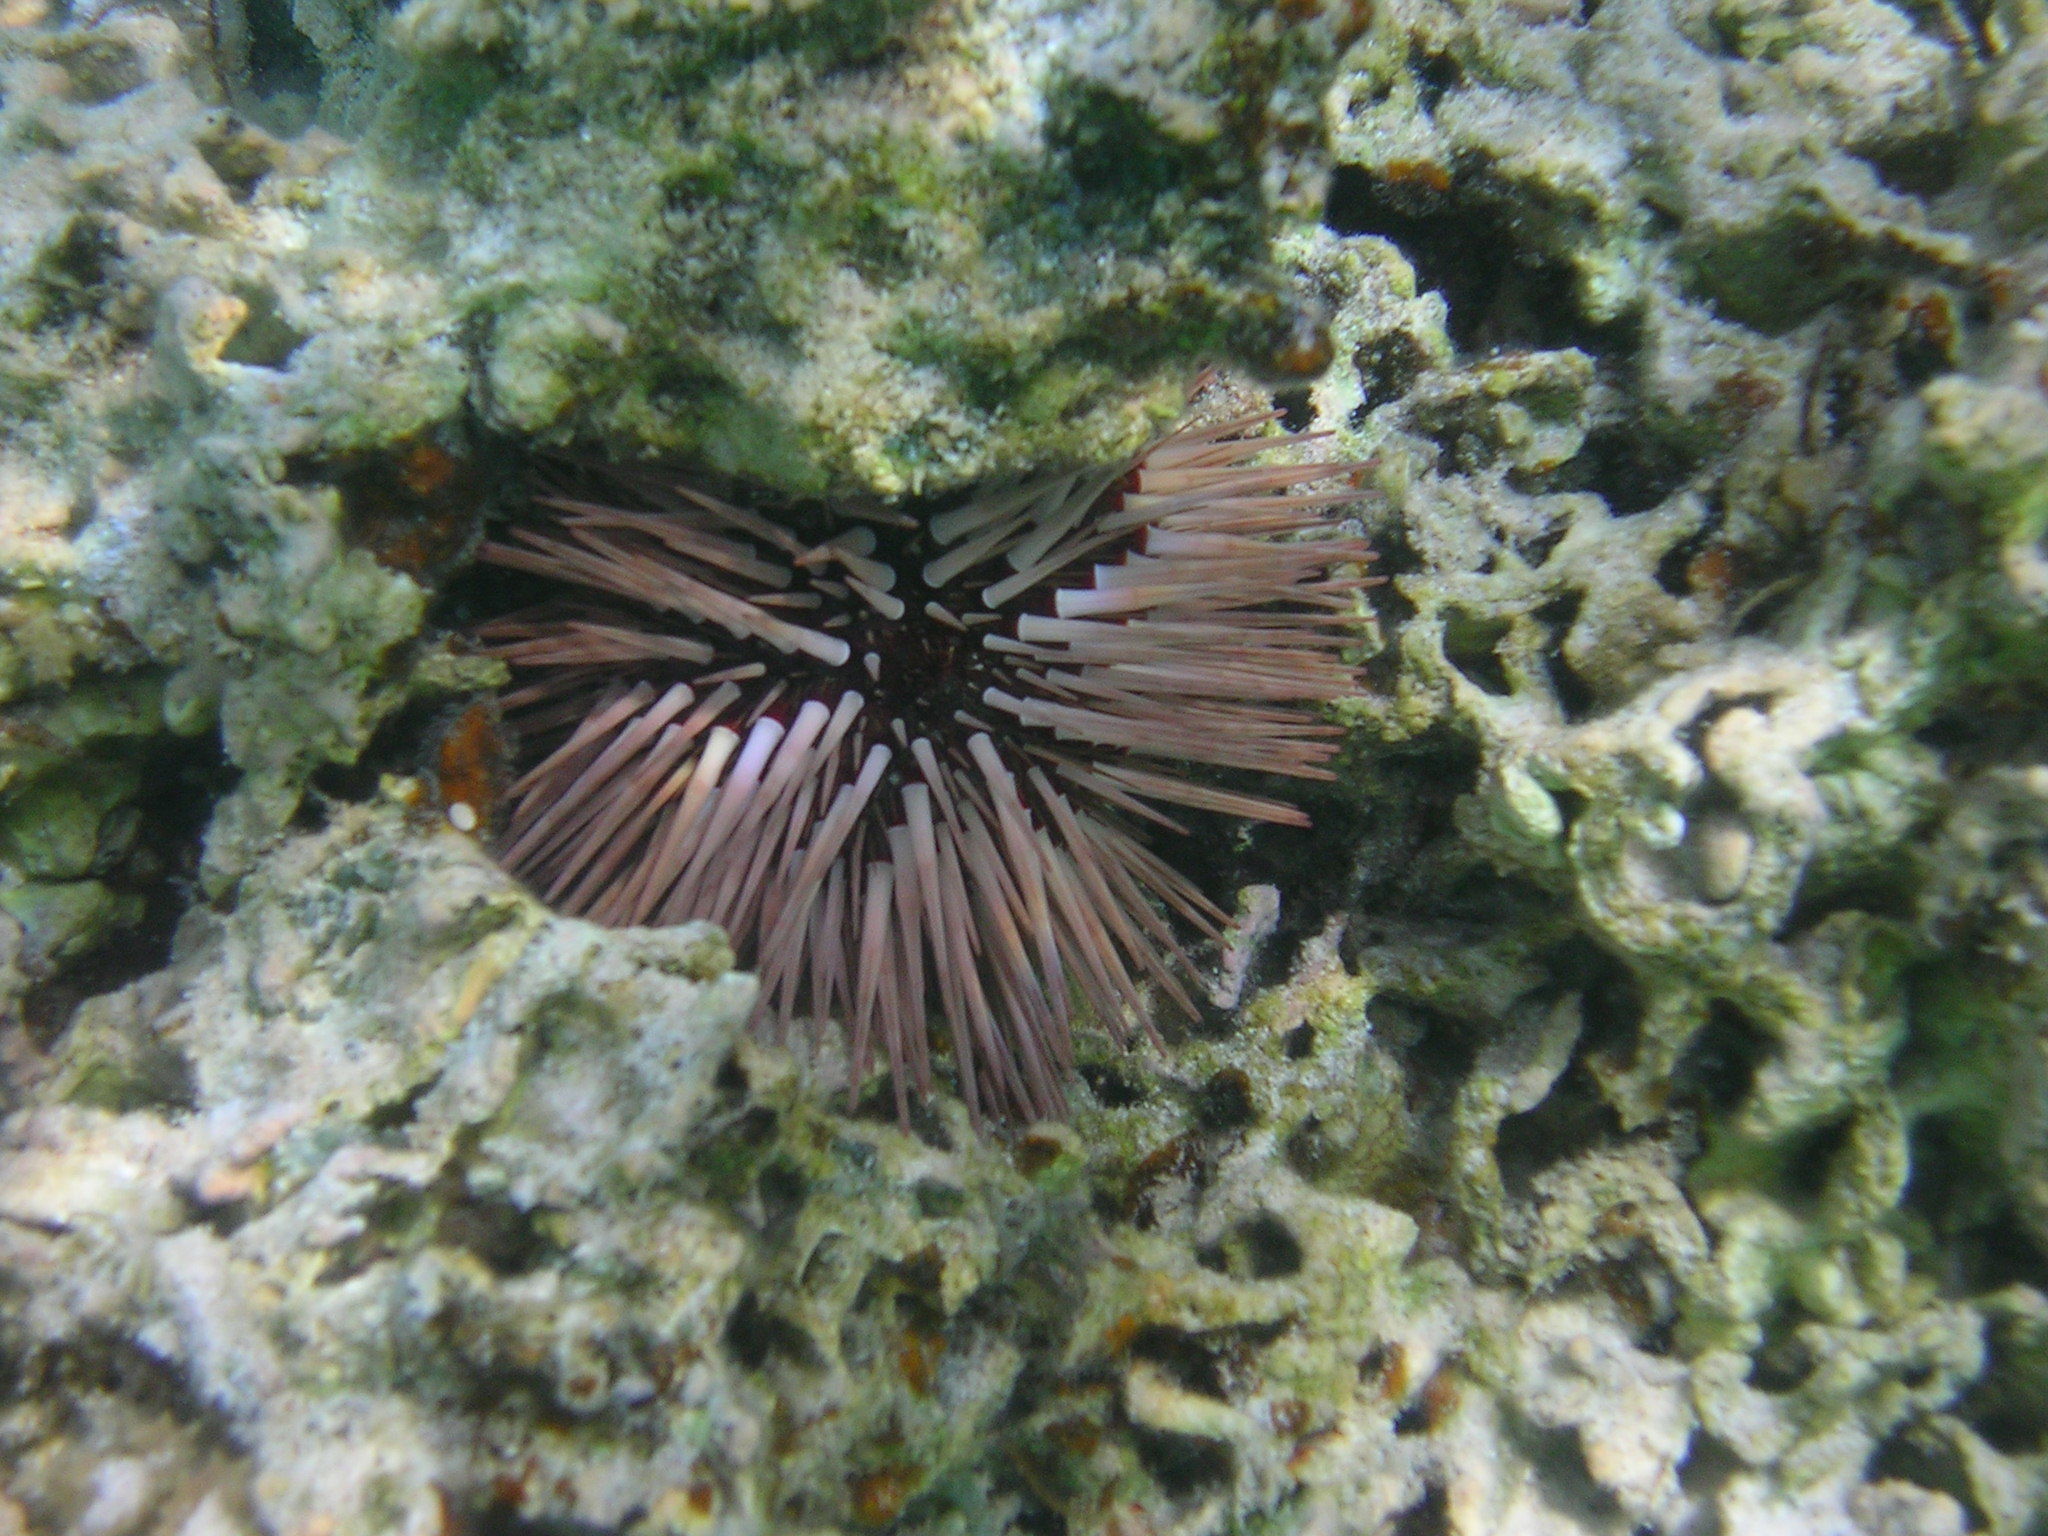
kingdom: Animalia
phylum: Echinodermata
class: Echinoidea
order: Camarodonta
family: Echinometridae
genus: Echinometra
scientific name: Echinometra mathaei
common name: Rock-boring urchin
